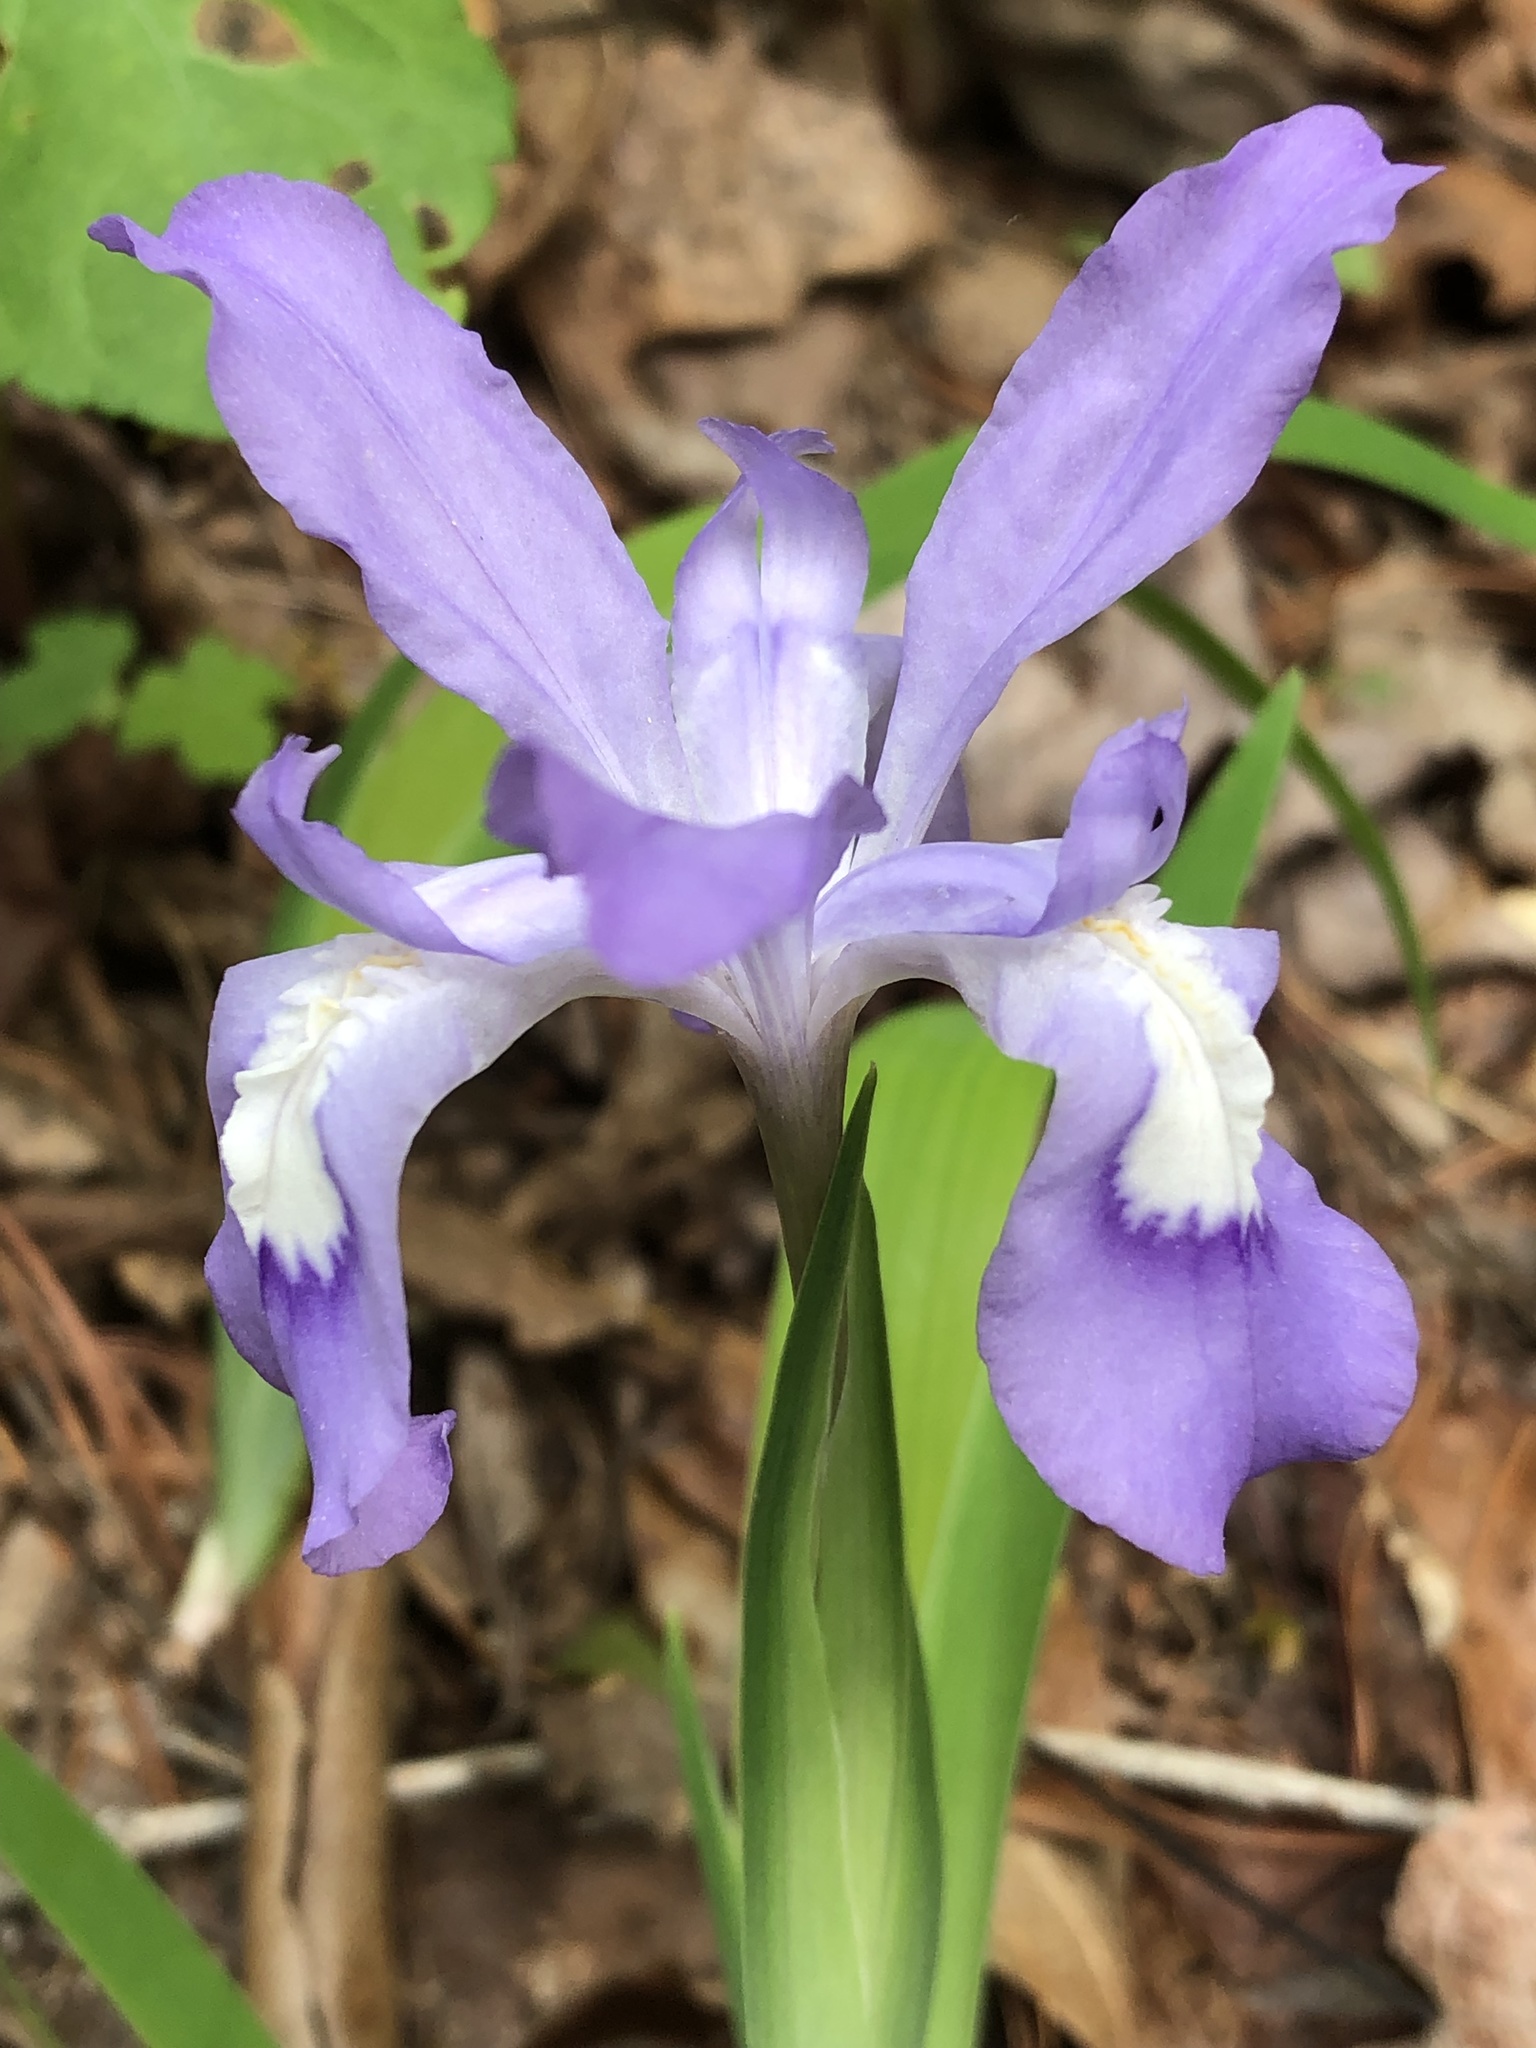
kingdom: Plantae
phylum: Tracheophyta
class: Liliopsida
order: Asparagales
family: Iridaceae
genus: Iris
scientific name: Iris cristata
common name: Crested iris
